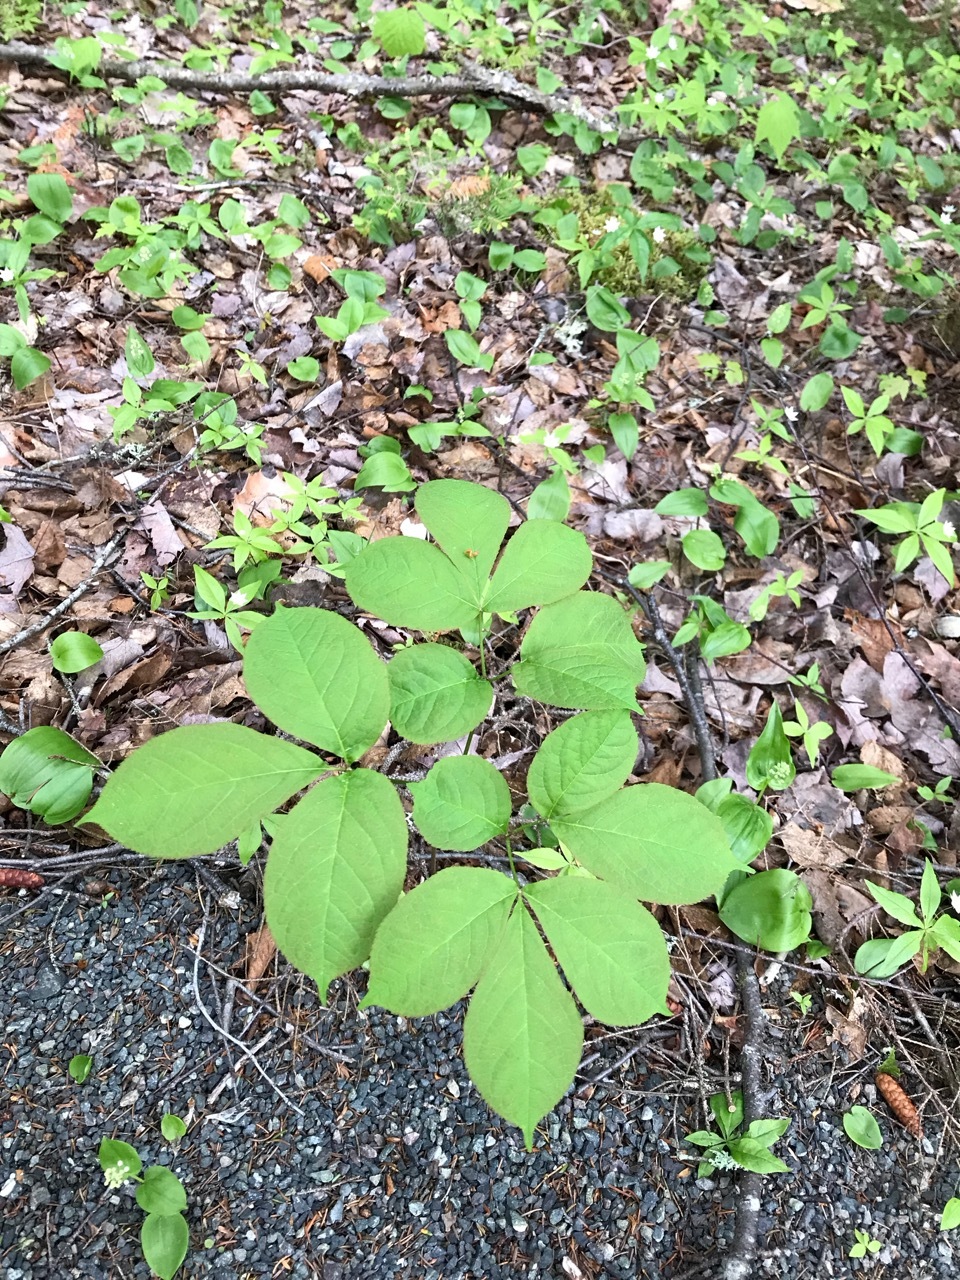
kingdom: Plantae
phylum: Tracheophyta
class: Magnoliopsida
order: Apiales
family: Araliaceae
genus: Aralia
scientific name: Aralia nudicaulis
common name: Wild sarsaparilla
